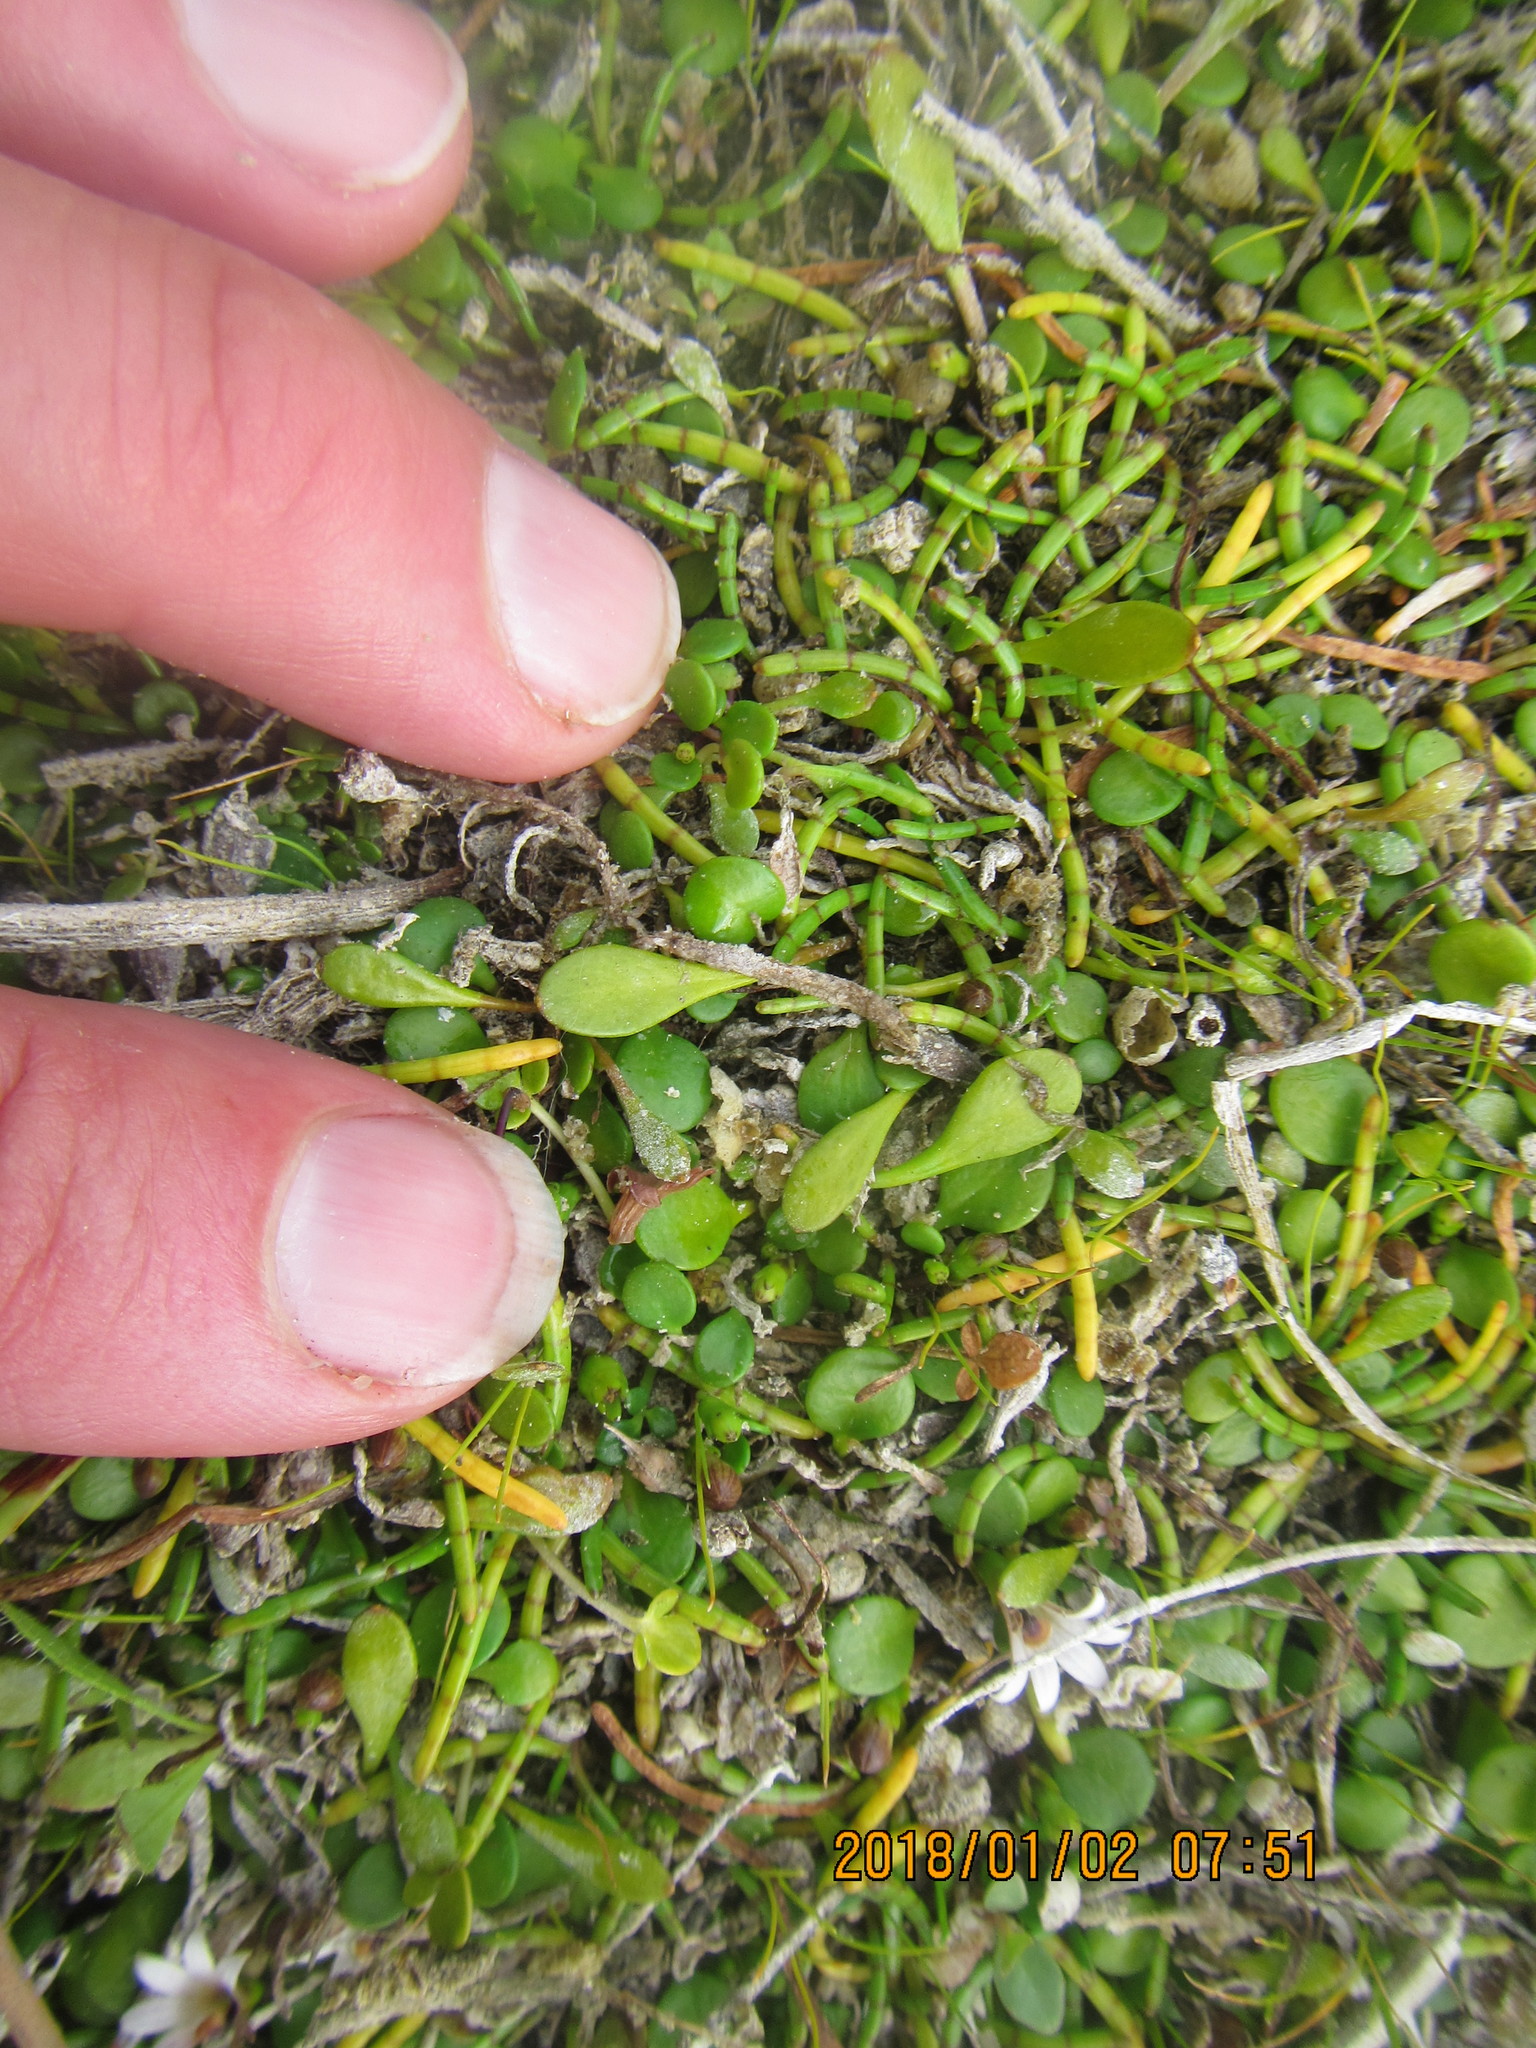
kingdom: Plantae
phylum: Tracheophyta
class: Magnoliopsida
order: Apiales
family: Apiaceae
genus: Lilaeopsis
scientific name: Lilaeopsis novae-zelandiae
